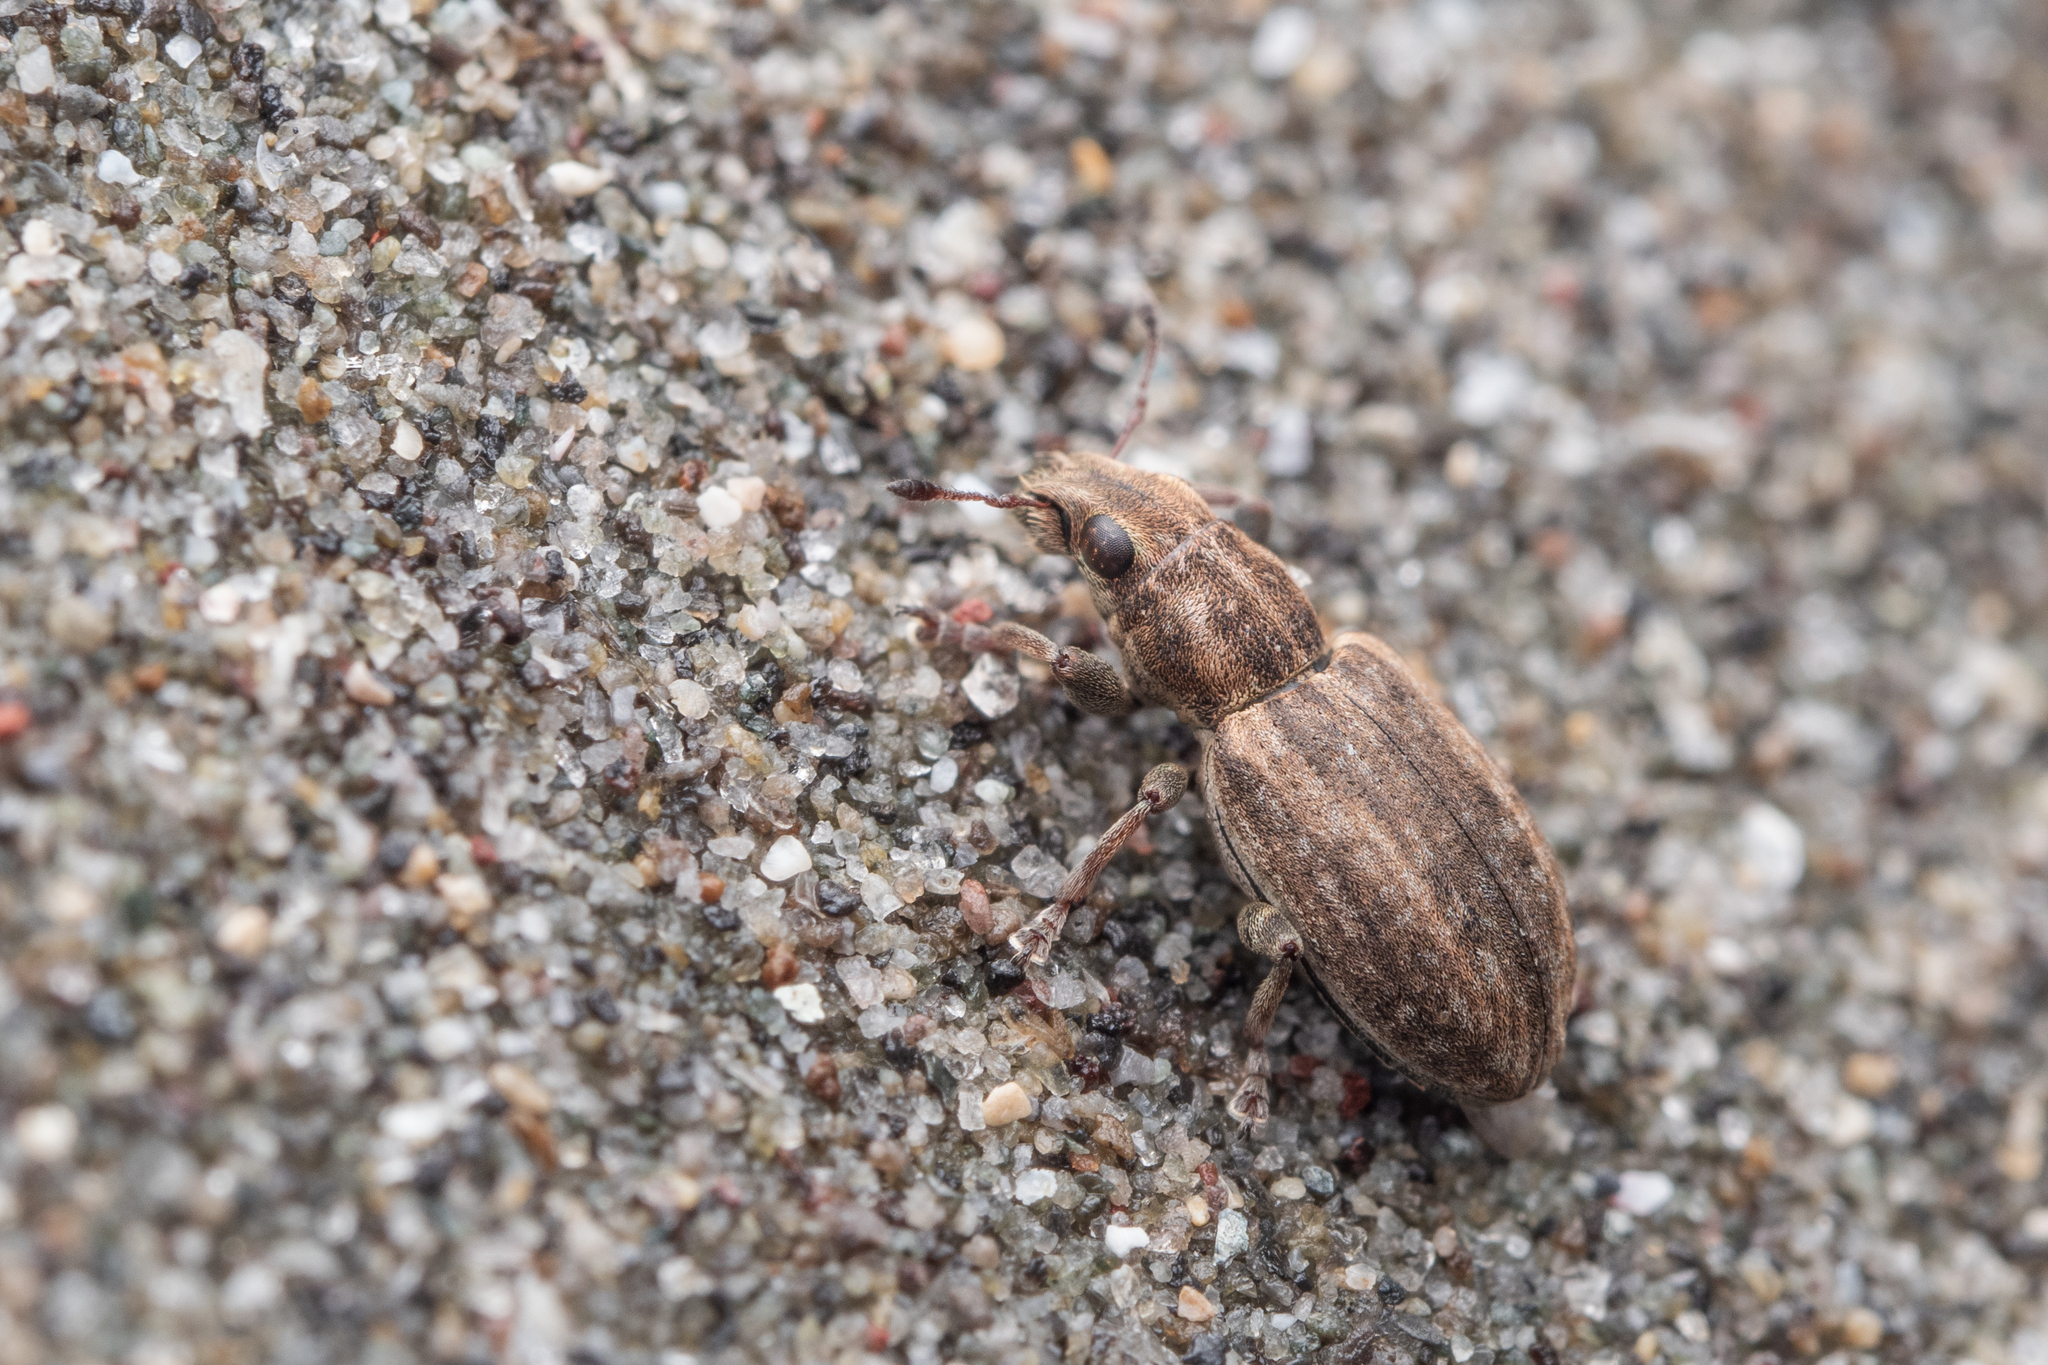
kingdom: Animalia
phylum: Arthropoda
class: Insecta
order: Coleoptera
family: Curculionidae
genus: Sitona
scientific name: Sitona obsoletus
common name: Weevil
